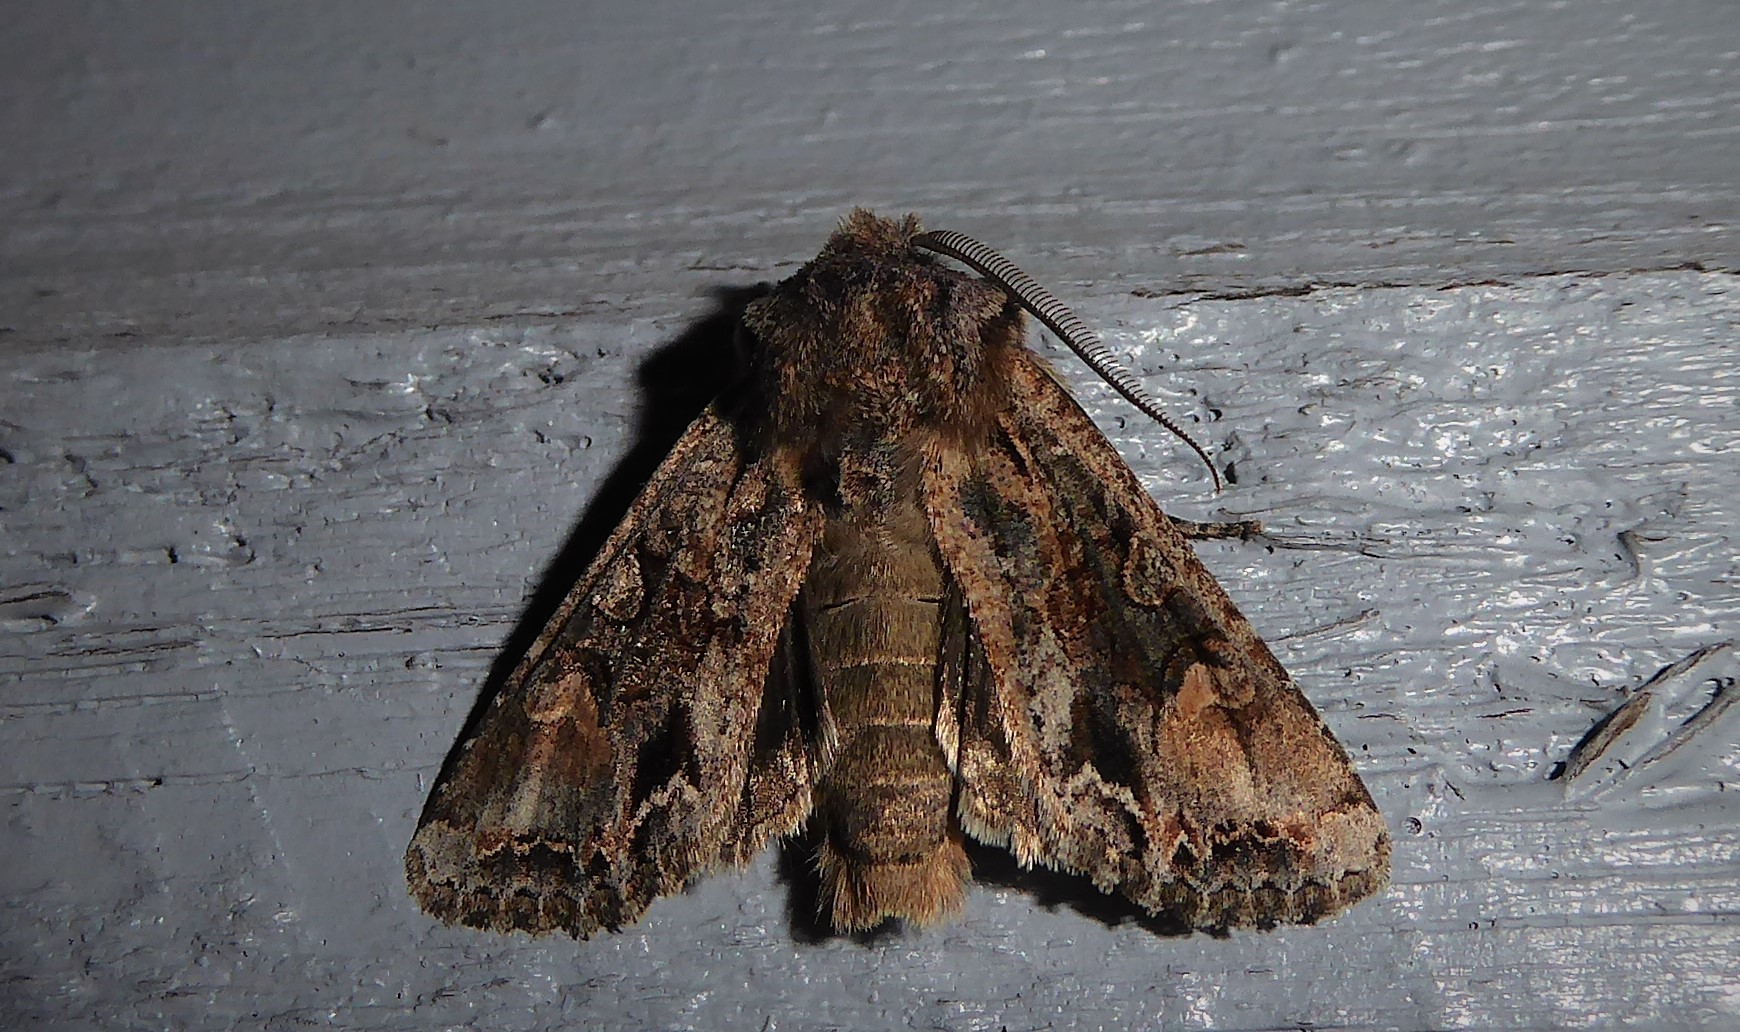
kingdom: Animalia
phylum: Arthropoda
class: Insecta
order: Lepidoptera
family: Noctuidae
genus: Ichneutica
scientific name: Ichneutica skelloni
